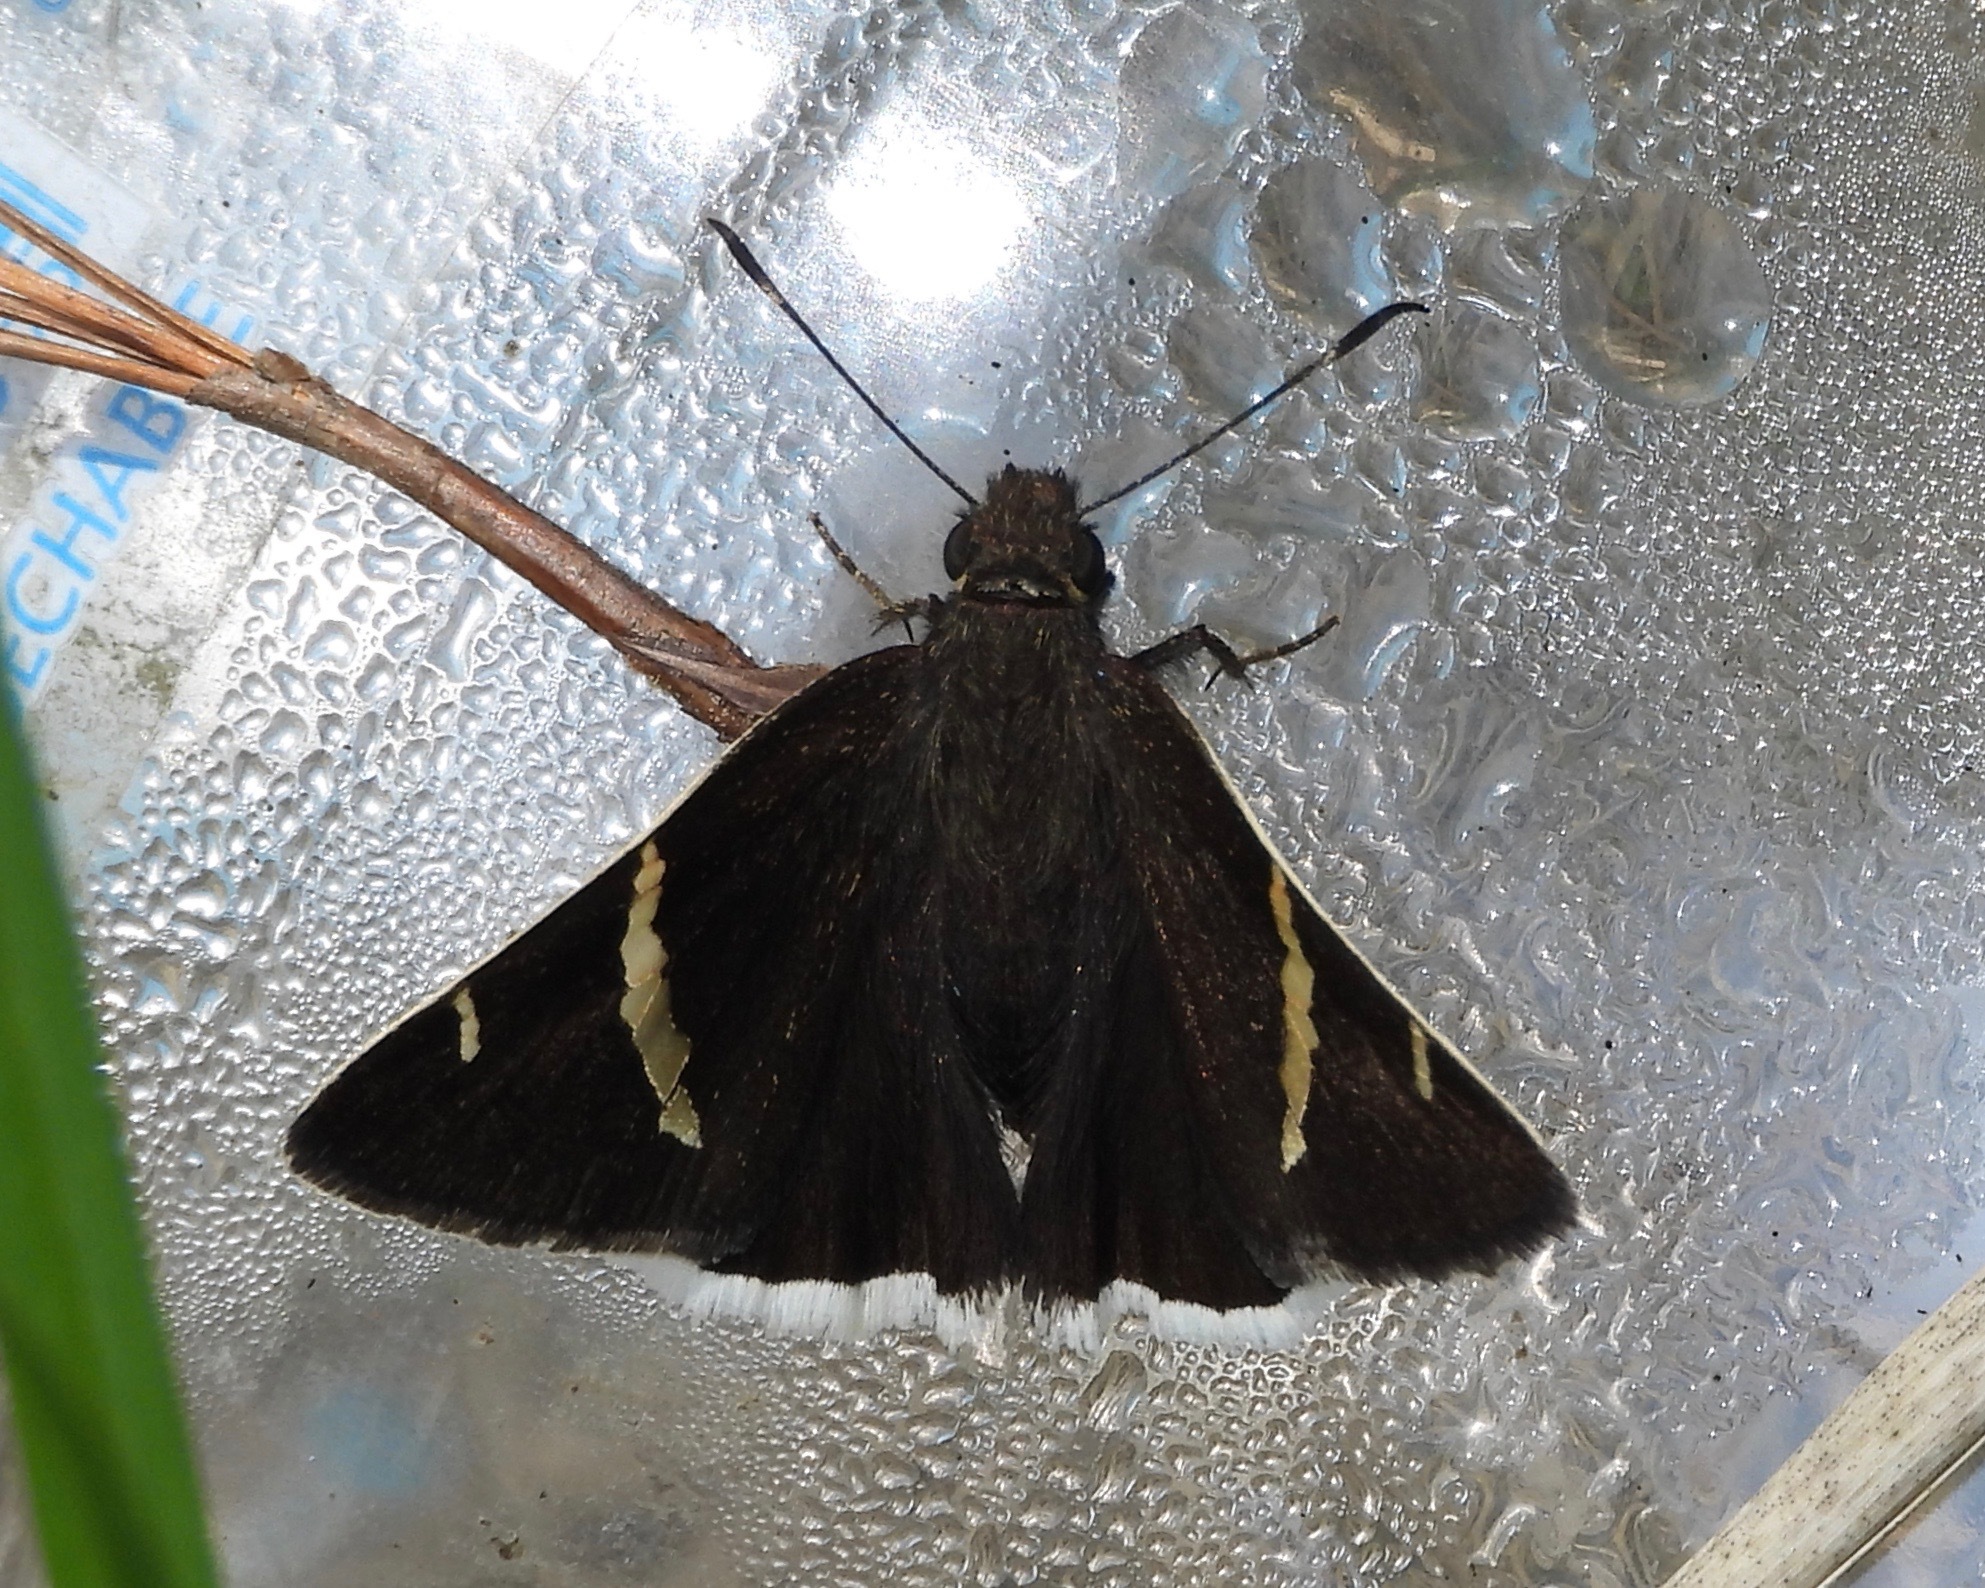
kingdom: Animalia
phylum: Arthropoda
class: Insecta
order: Lepidoptera
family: Hesperiidae
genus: Thorybes
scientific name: Thorybes cincta
